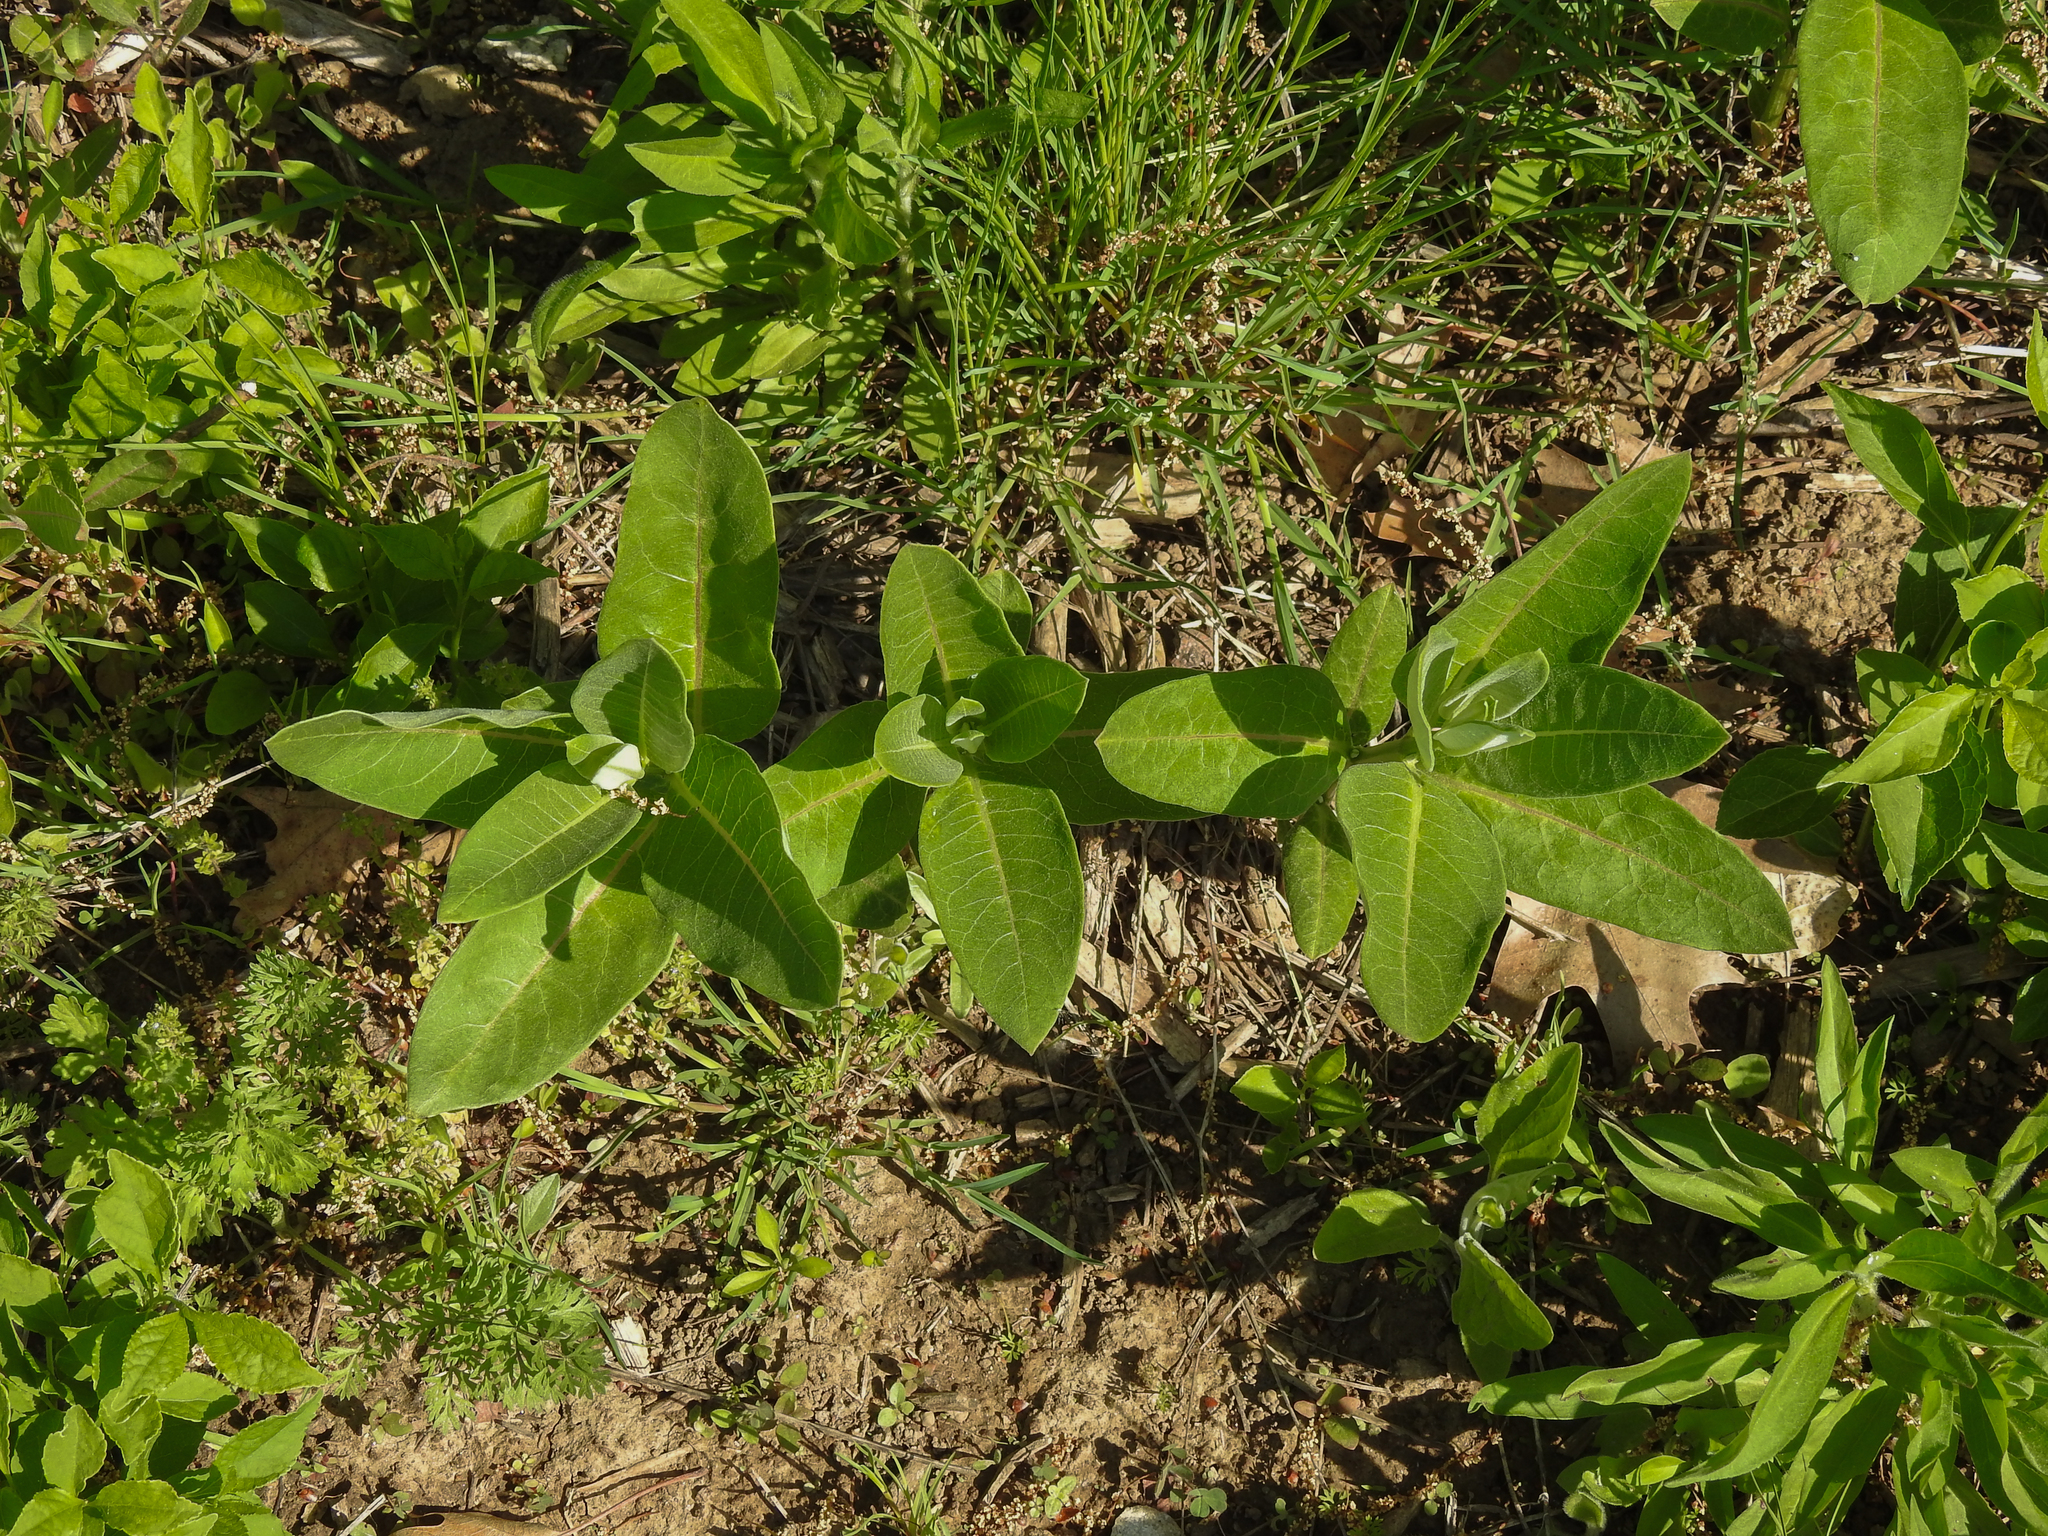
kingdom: Plantae
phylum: Tracheophyta
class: Magnoliopsida
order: Gentianales
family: Apocynaceae
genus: Asclepias
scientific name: Asclepias syriaca
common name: Common milkweed
